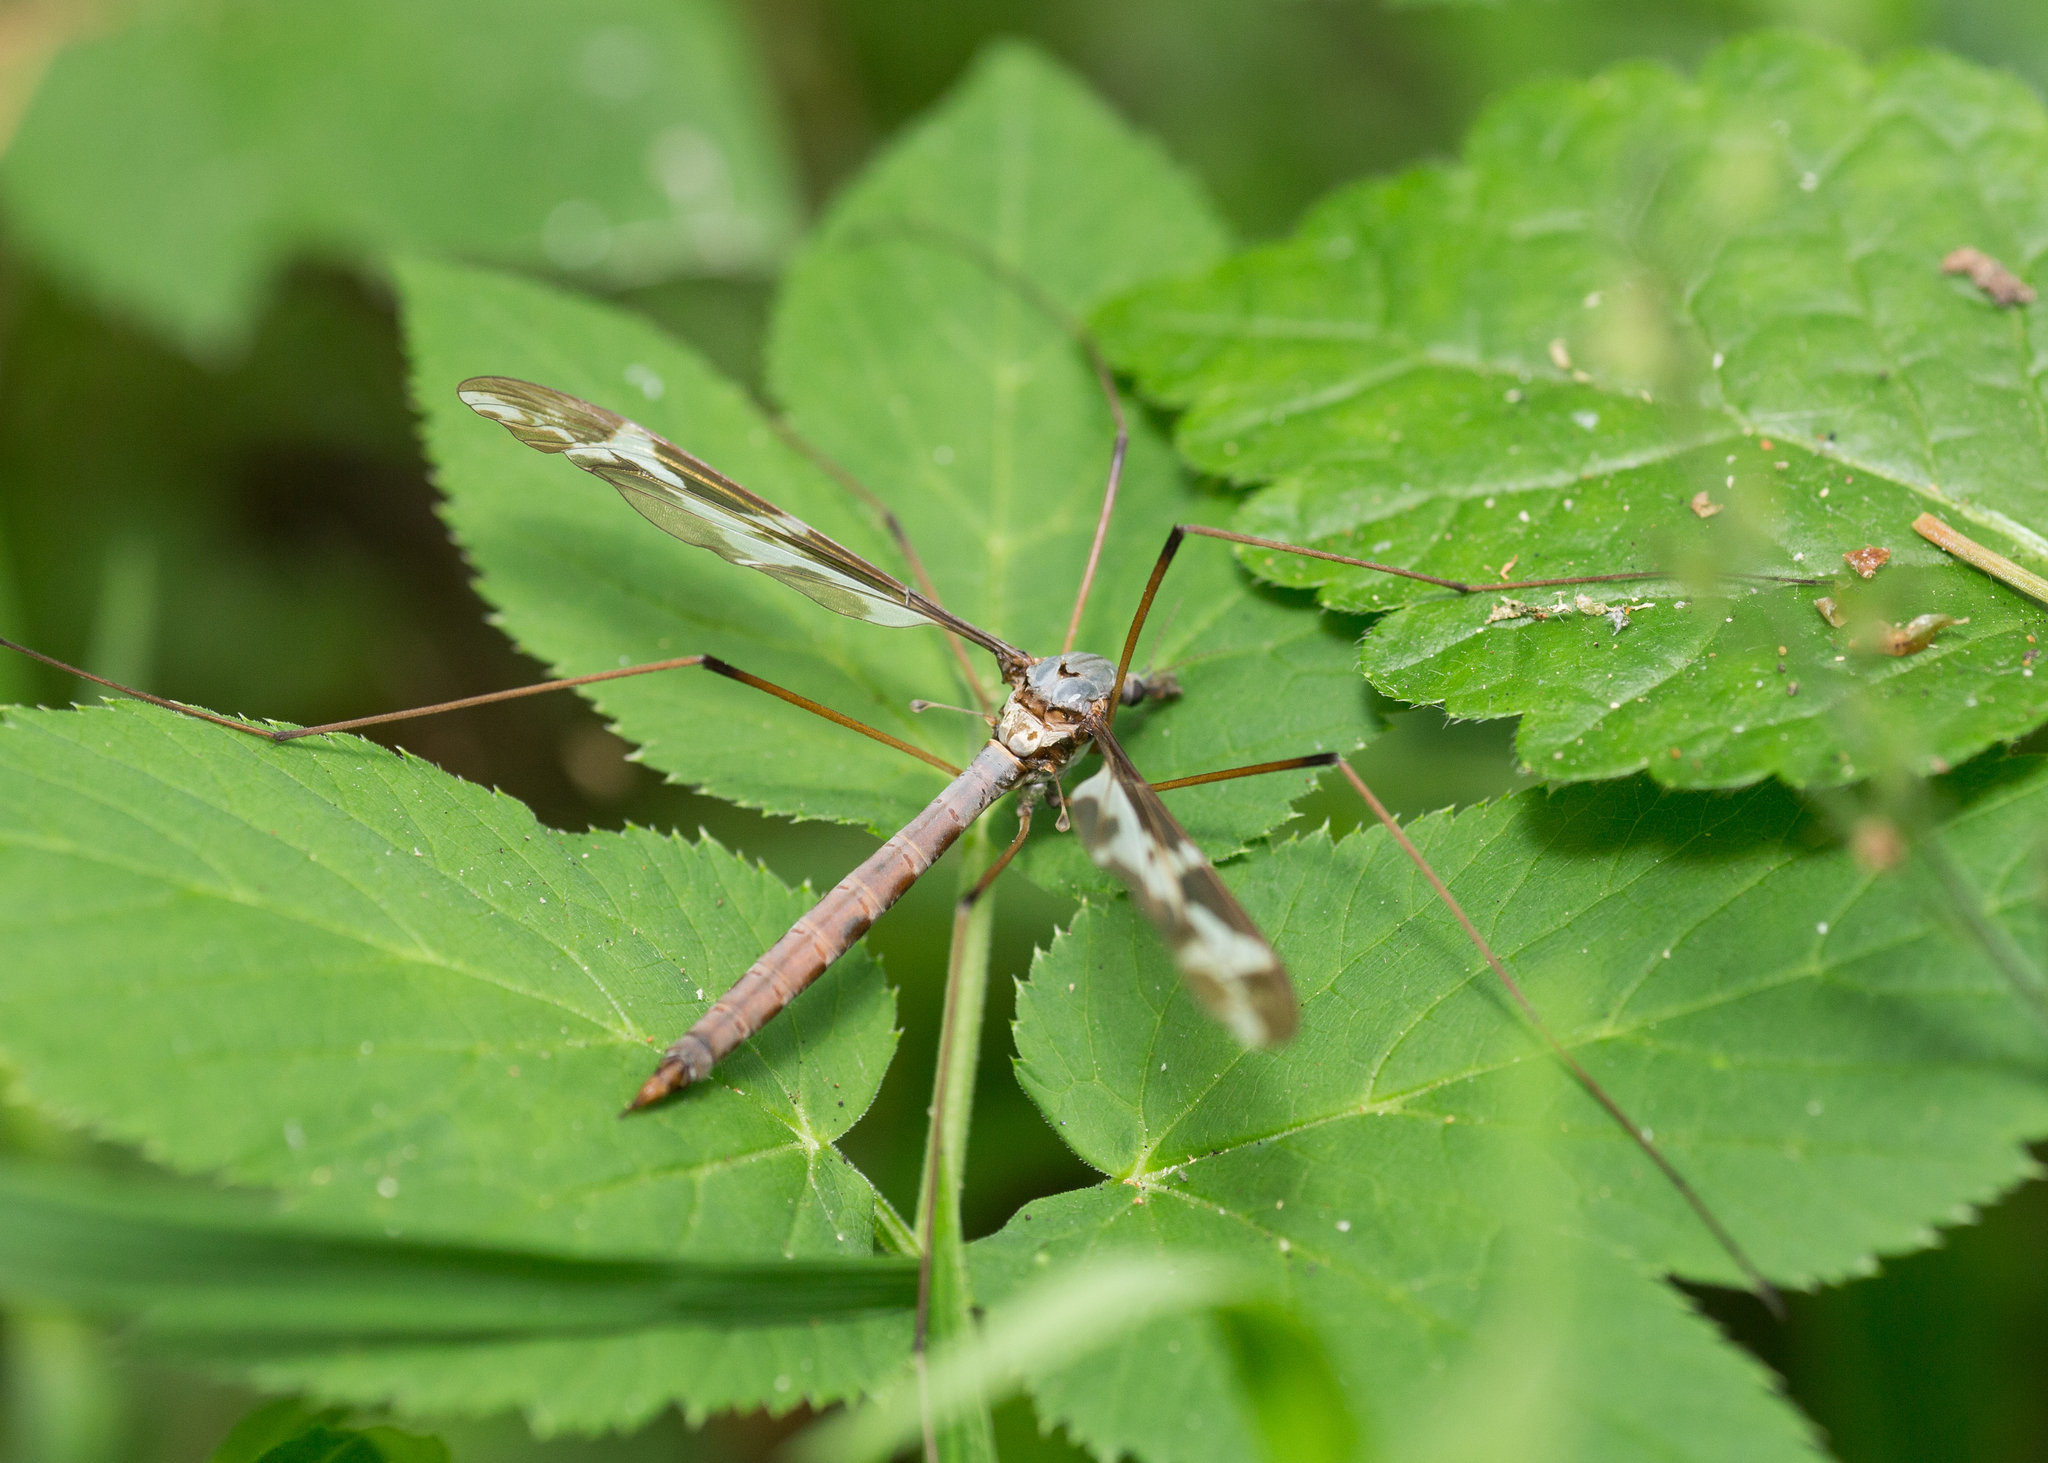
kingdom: Animalia
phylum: Arthropoda
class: Insecta
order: Diptera
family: Tipulidae
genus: Tipula
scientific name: Tipula maxima
